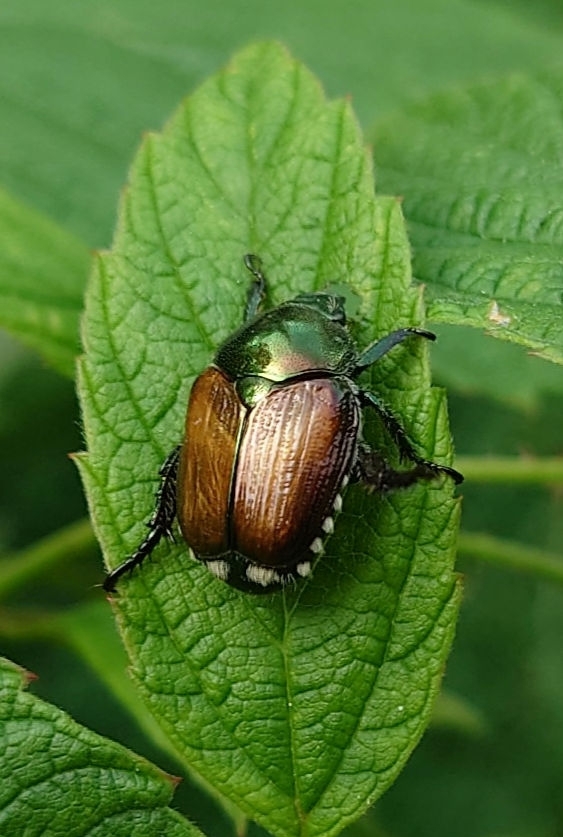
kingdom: Animalia
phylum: Arthropoda
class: Insecta
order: Coleoptera
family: Scarabaeidae
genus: Popillia
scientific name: Popillia japonica
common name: Japanese beetle
